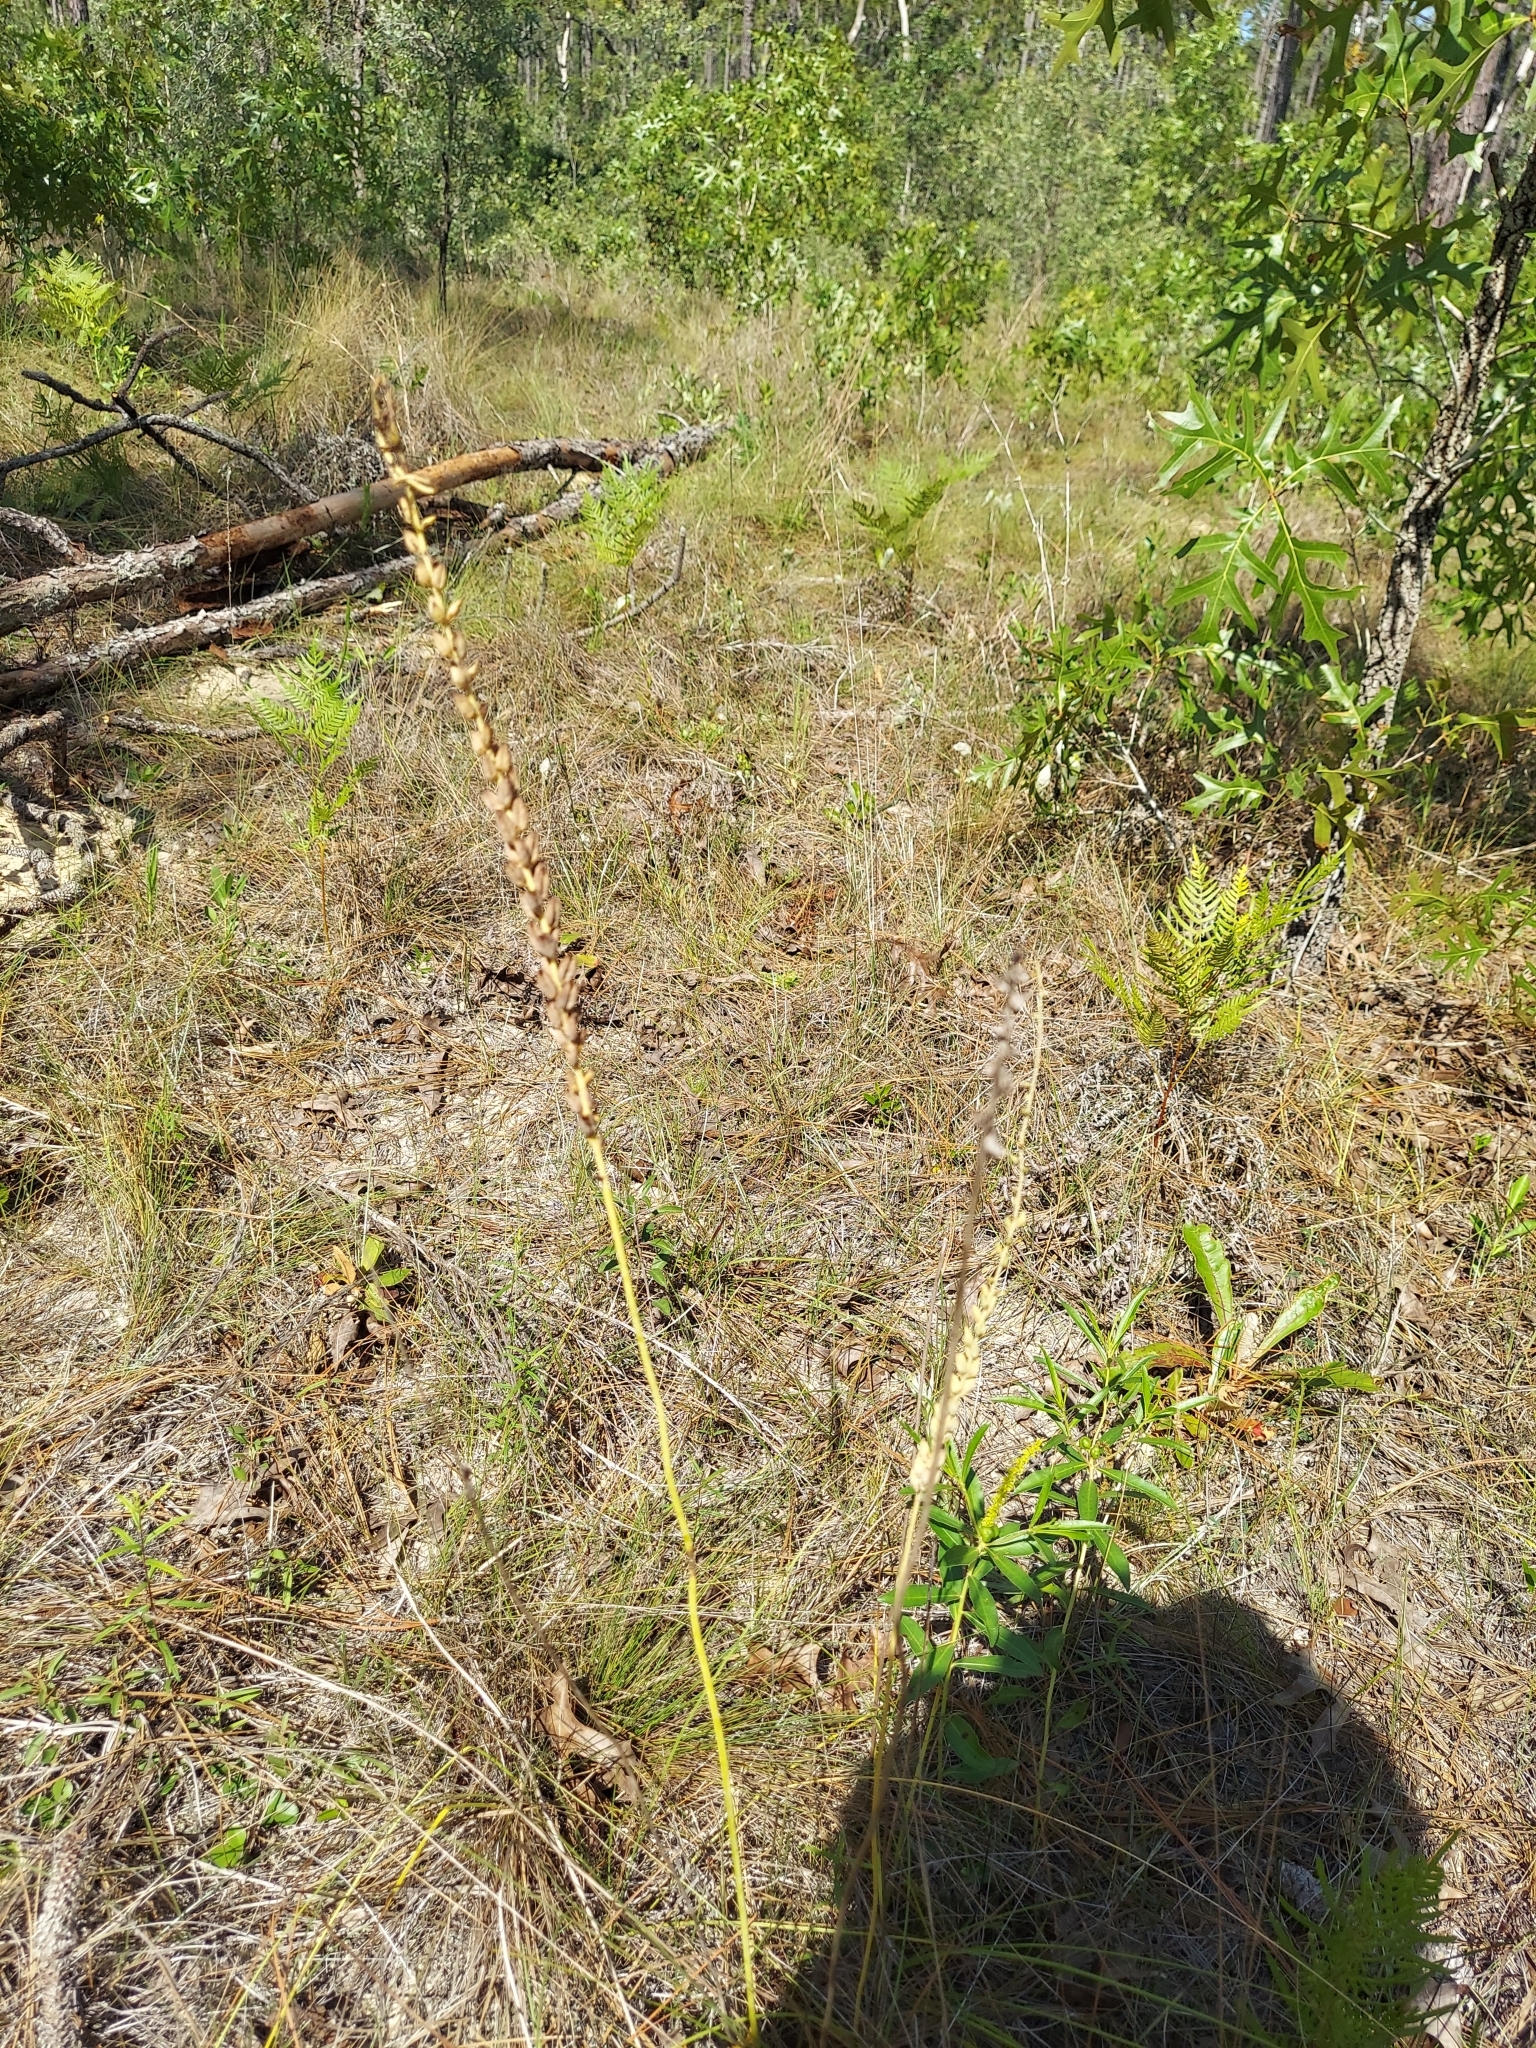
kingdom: Plantae
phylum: Tracheophyta
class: Liliopsida
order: Liliales
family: Melanthiaceae
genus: Schoenocaulon
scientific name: Schoenocaulon dubium
